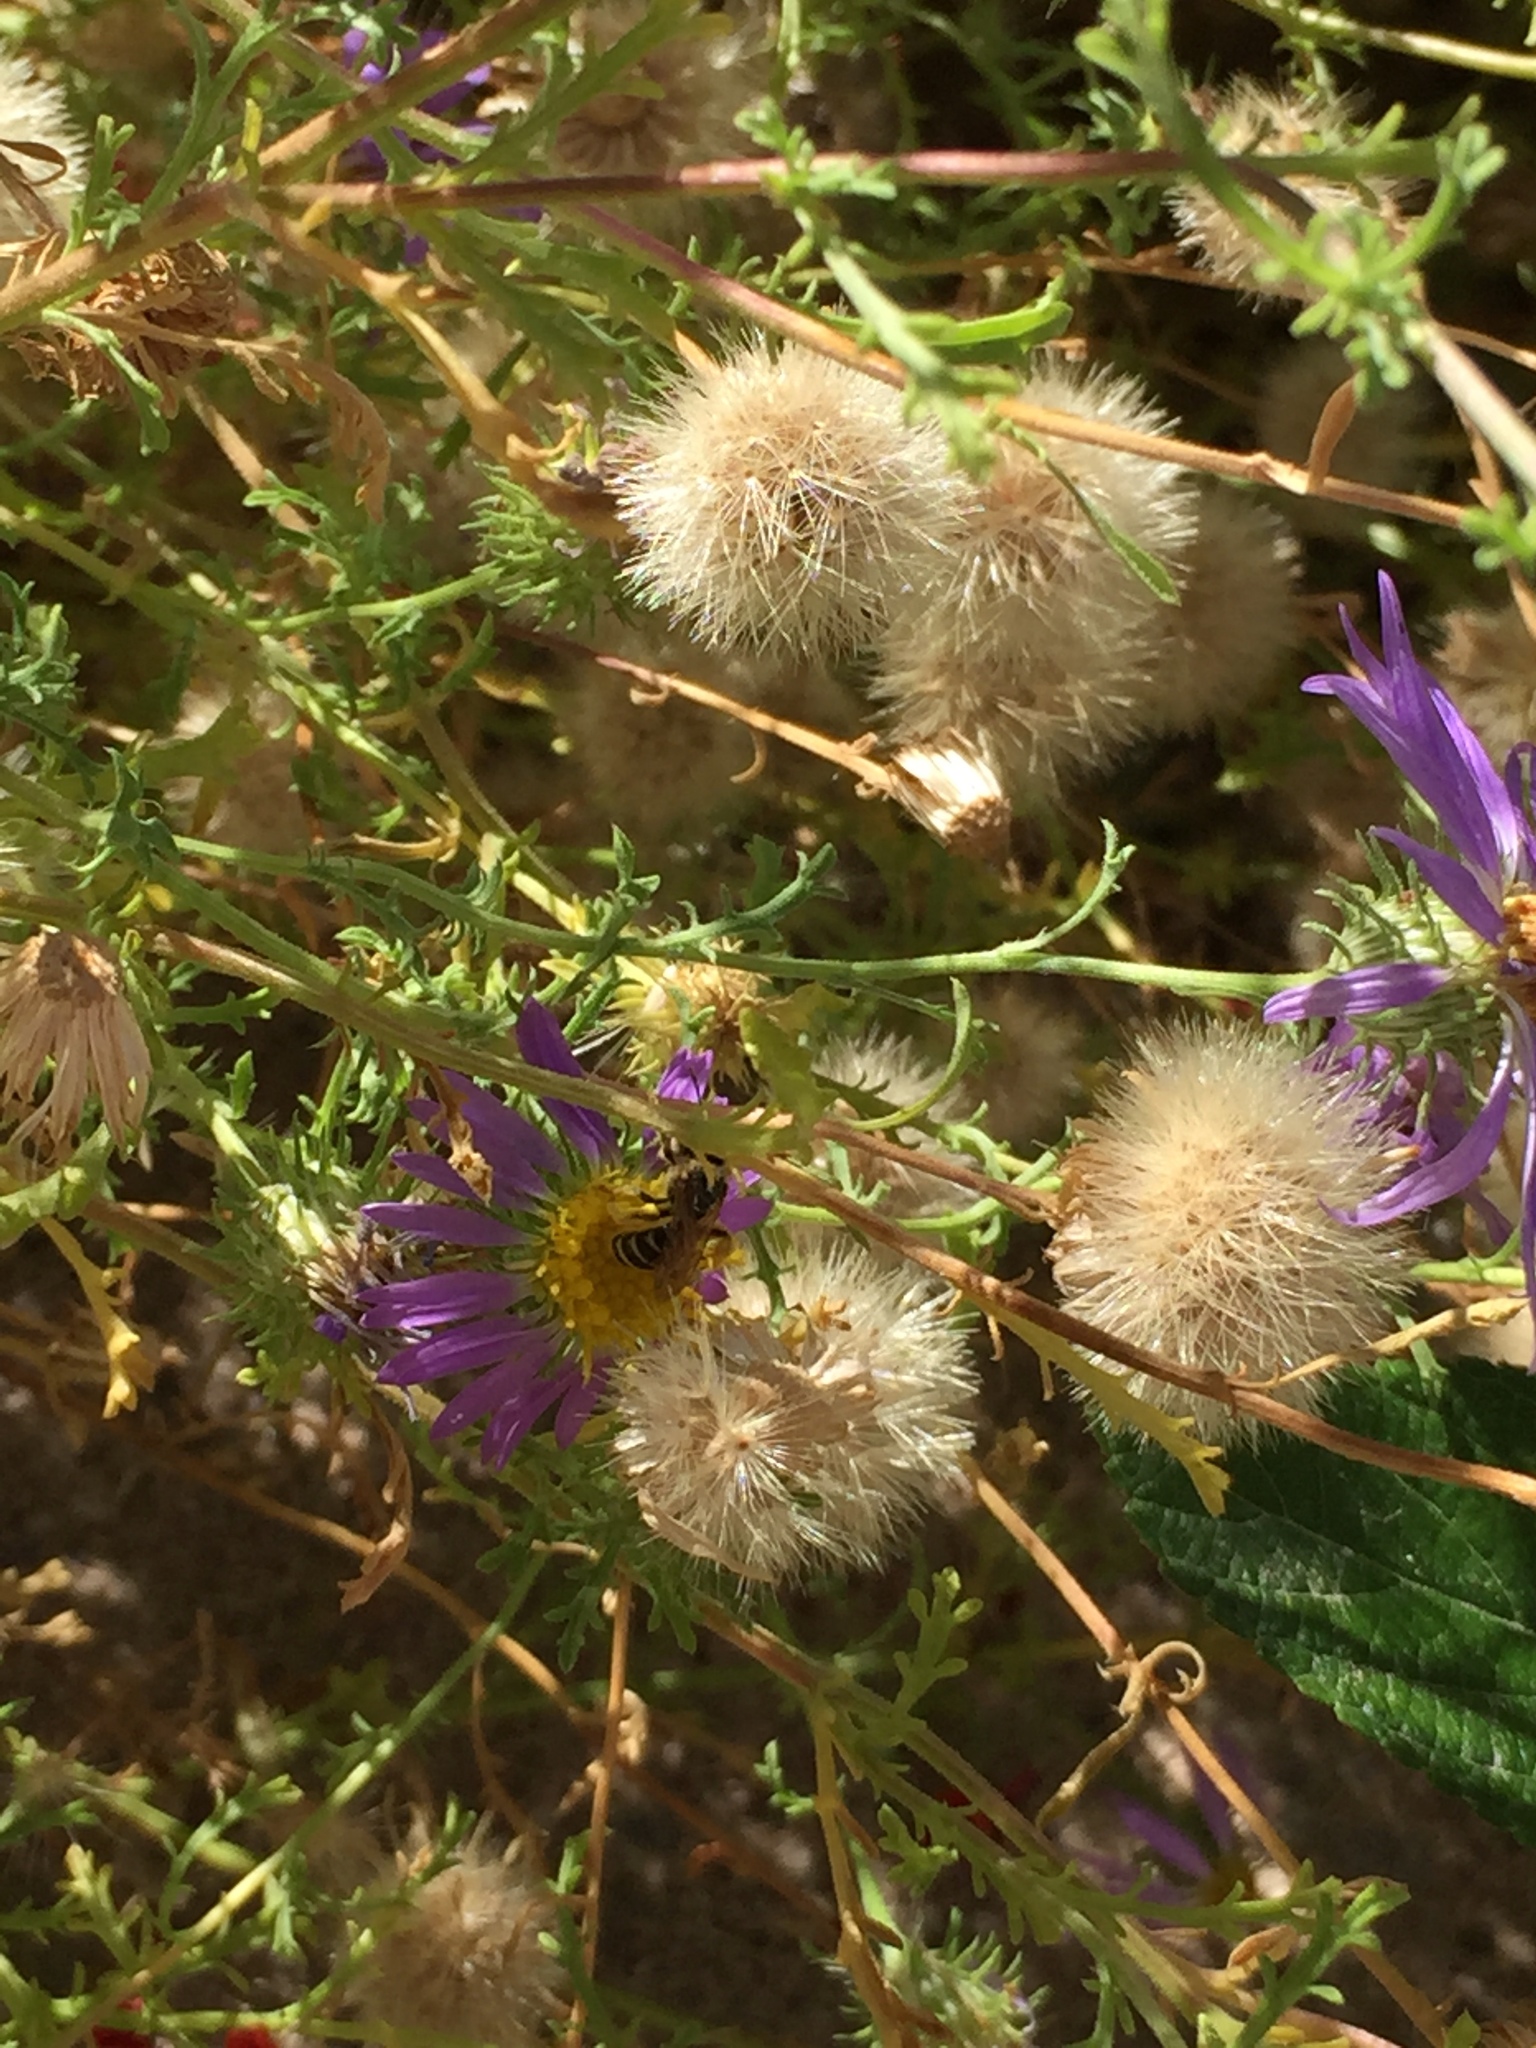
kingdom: Animalia
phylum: Arthropoda
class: Insecta
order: Hymenoptera
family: Halictidae
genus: Halictus
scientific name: Halictus ligatus
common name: Ligated furrow bee
